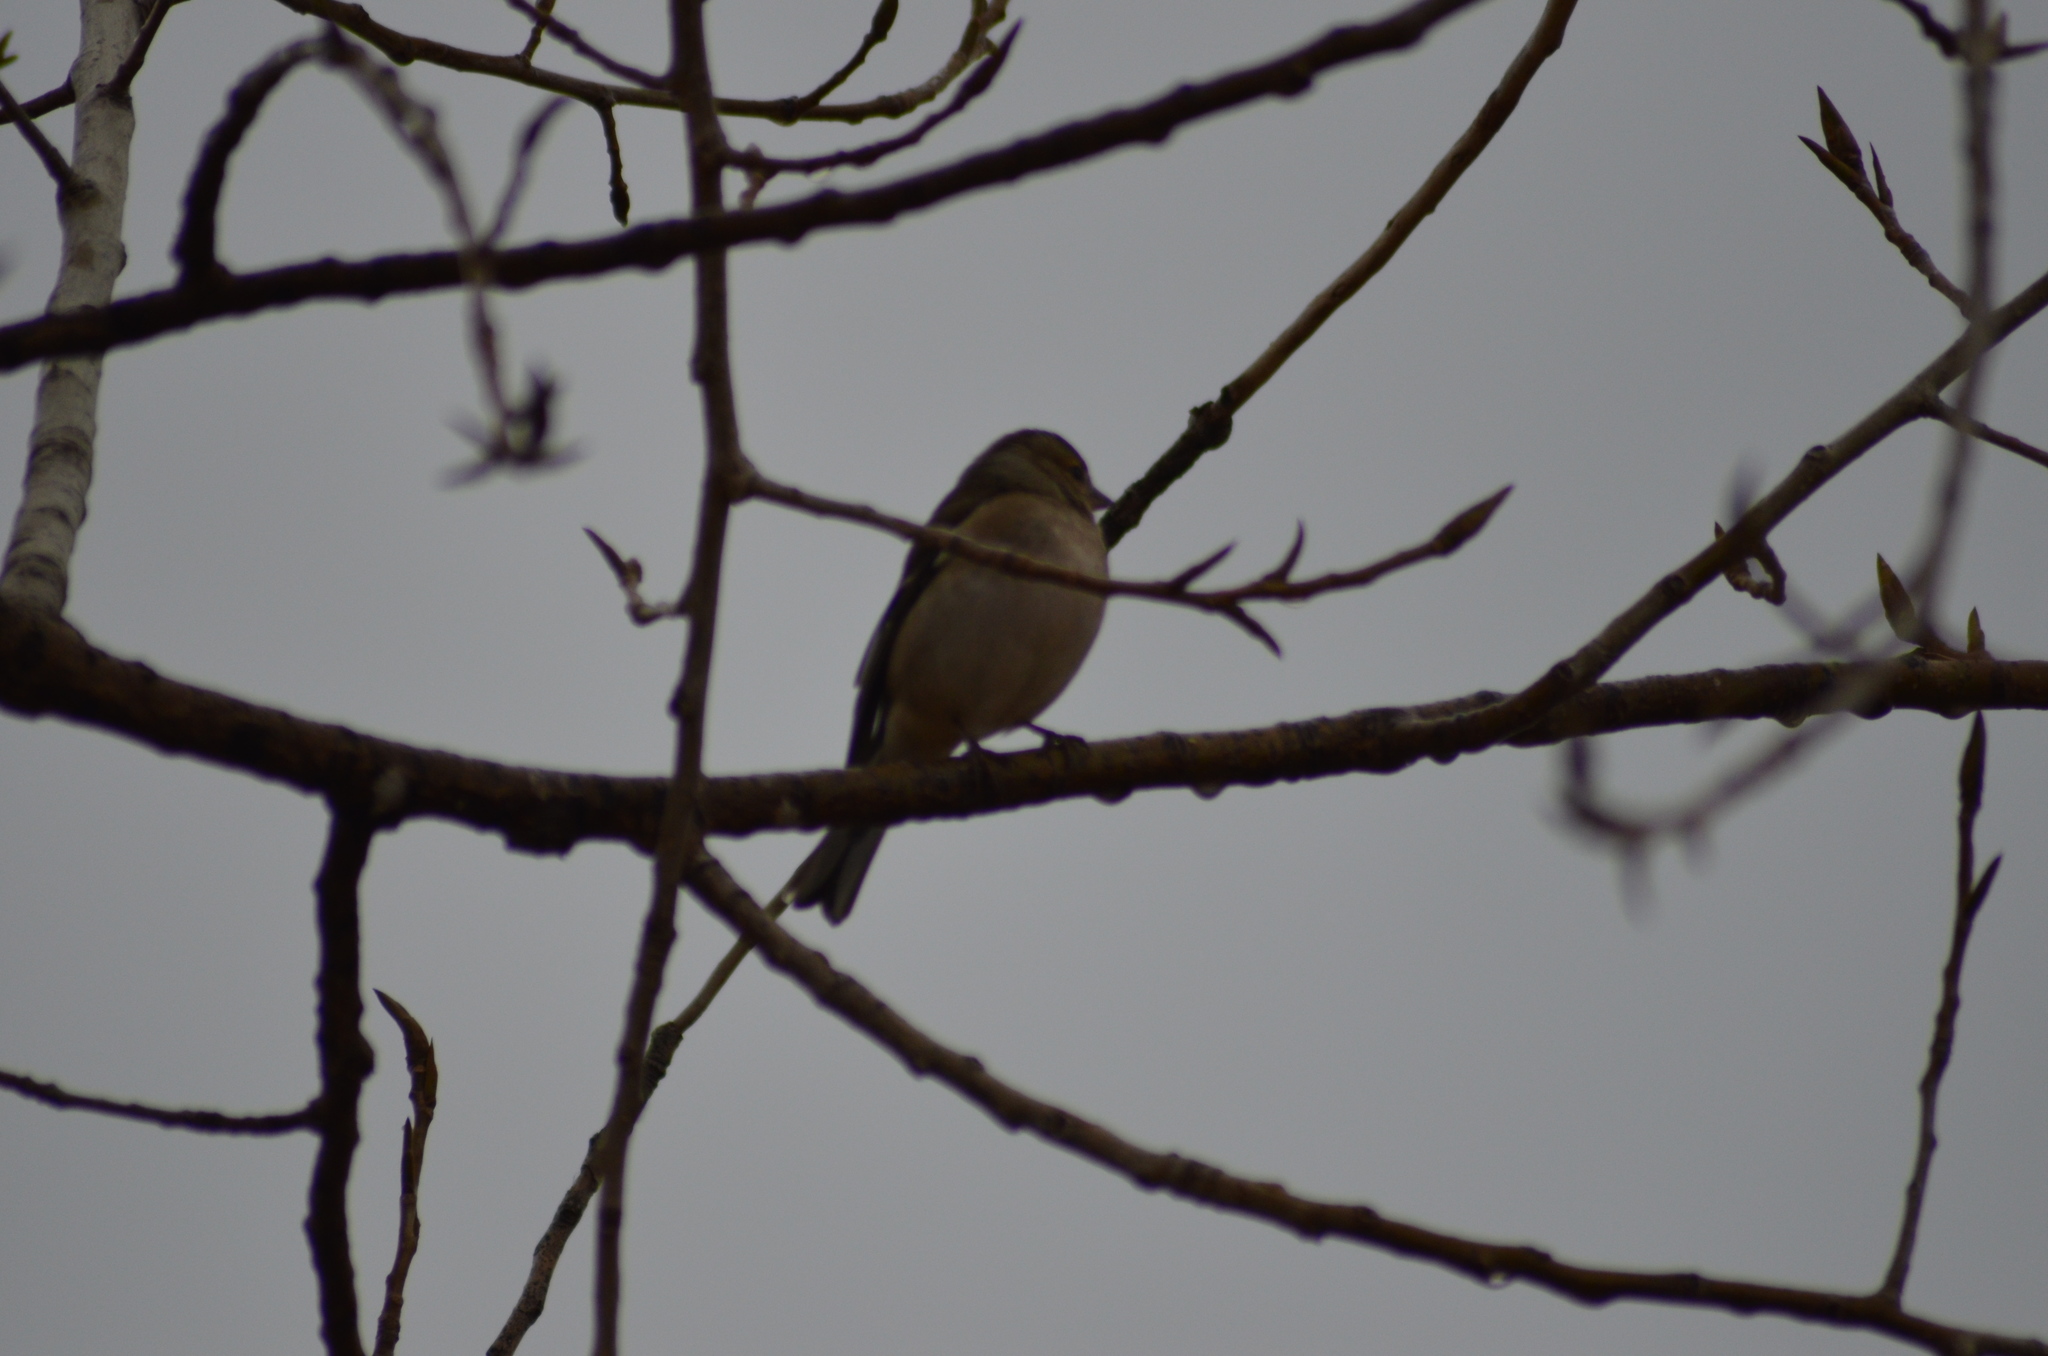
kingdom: Animalia
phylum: Chordata
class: Aves
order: Passeriformes
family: Fringillidae
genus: Fringilla
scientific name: Fringilla coelebs
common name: Common chaffinch
